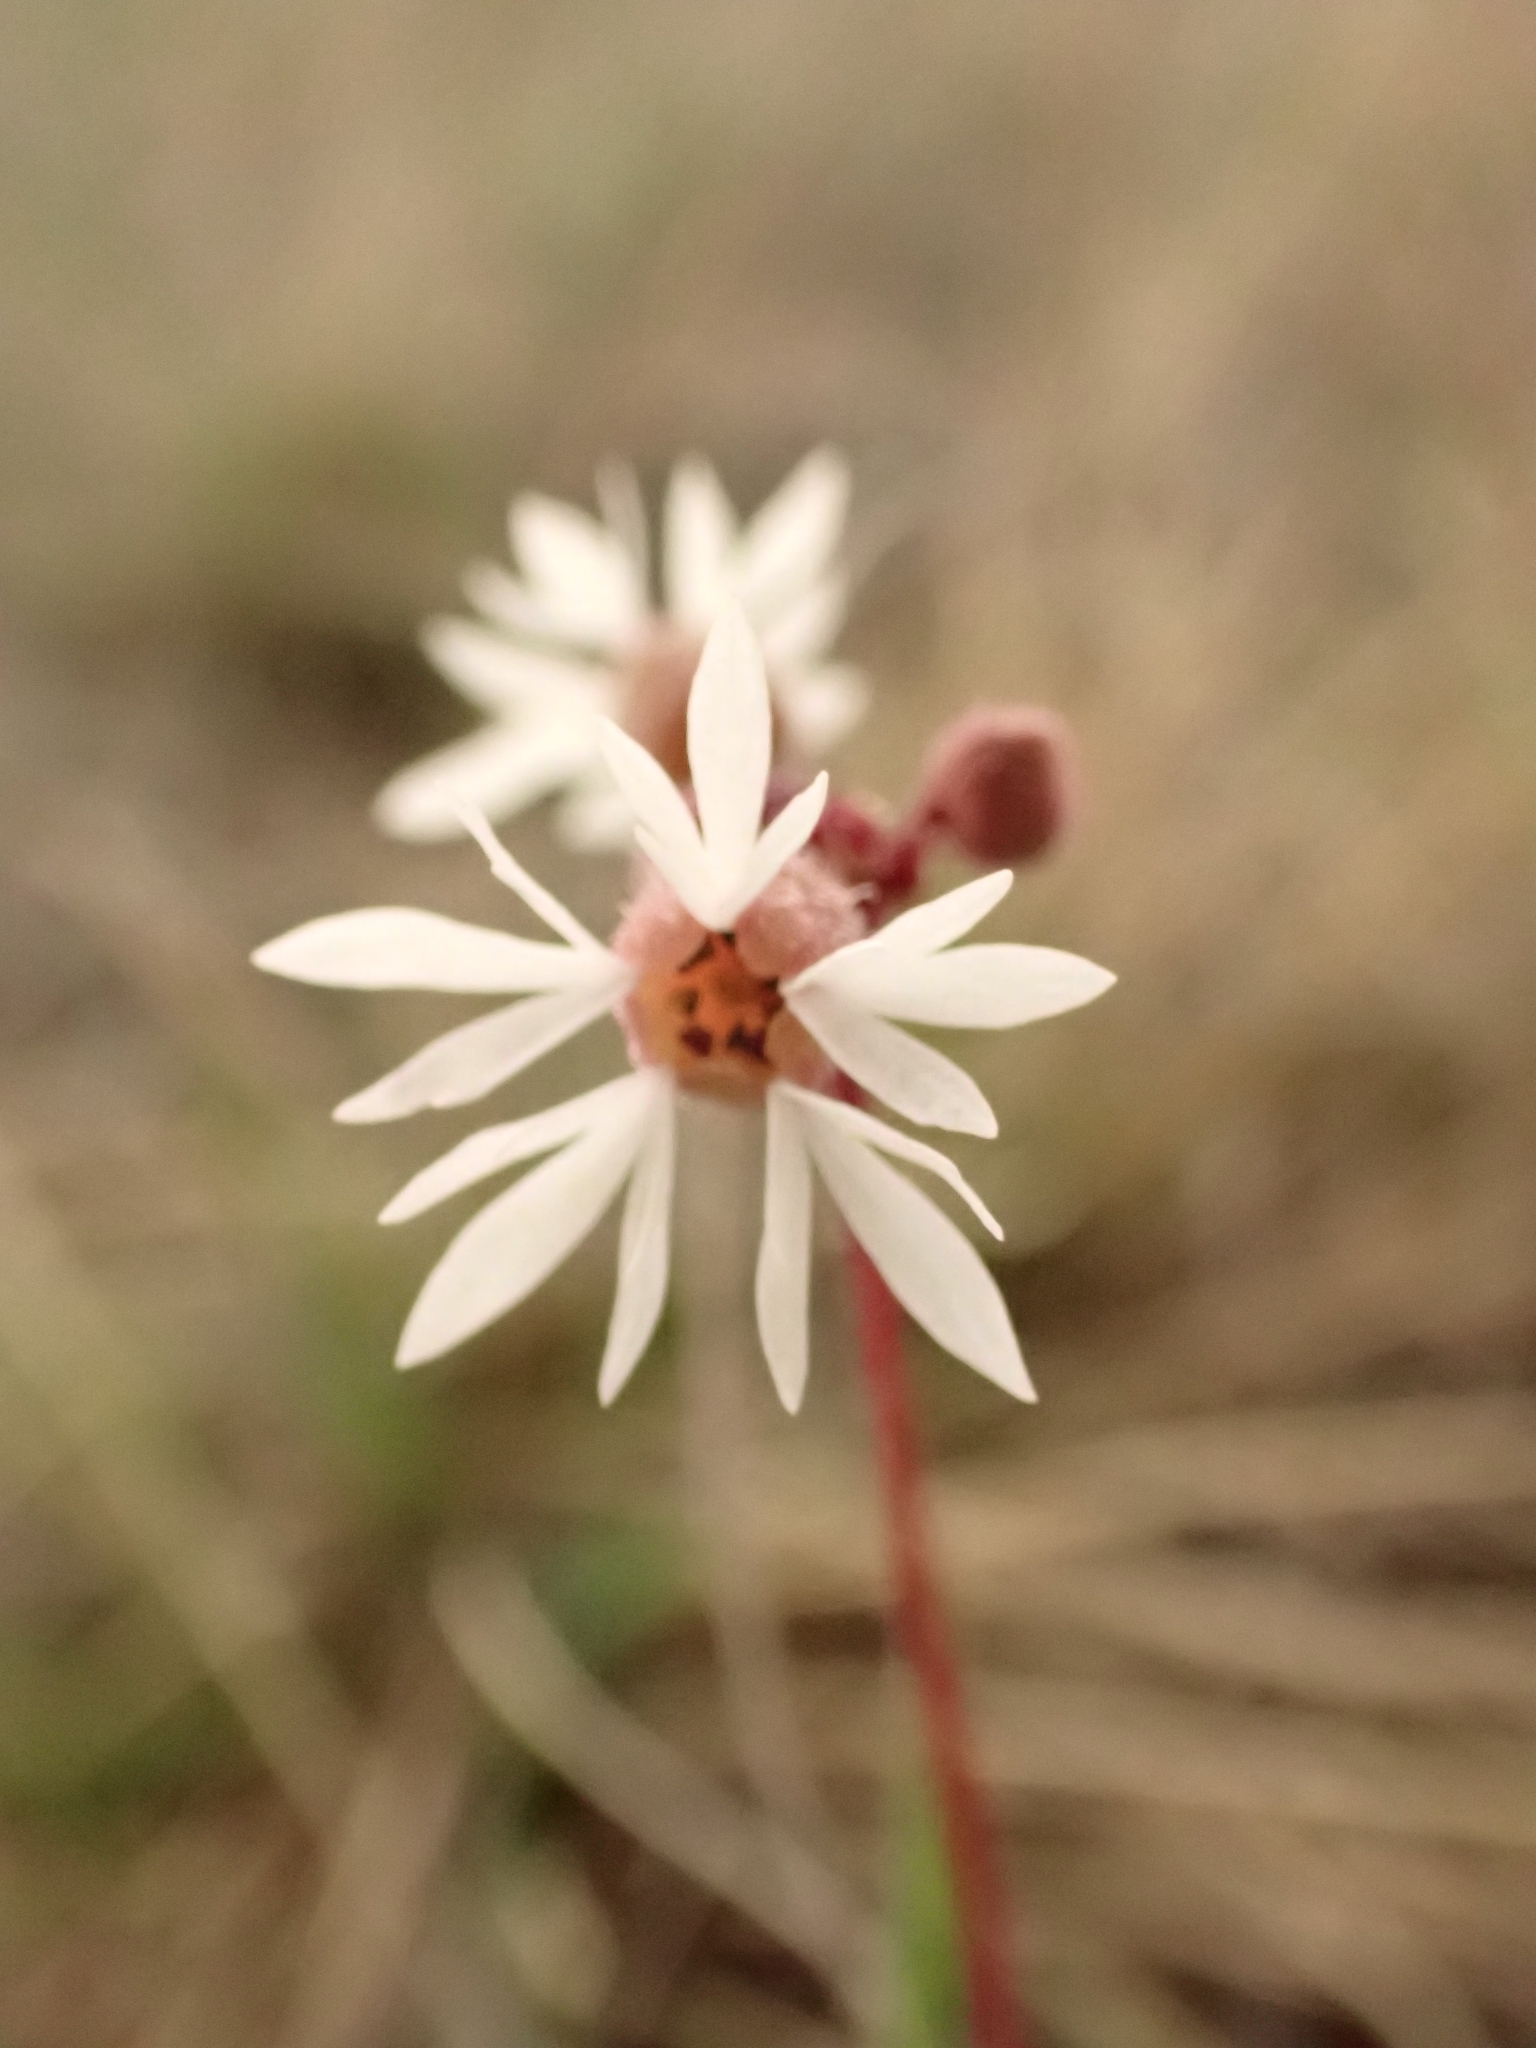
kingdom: Plantae
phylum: Tracheophyta
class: Magnoliopsida
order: Saxifragales
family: Saxifragaceae
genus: Lithophragma
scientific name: Lithophragma glabrum
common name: Bulbous prairie-star
